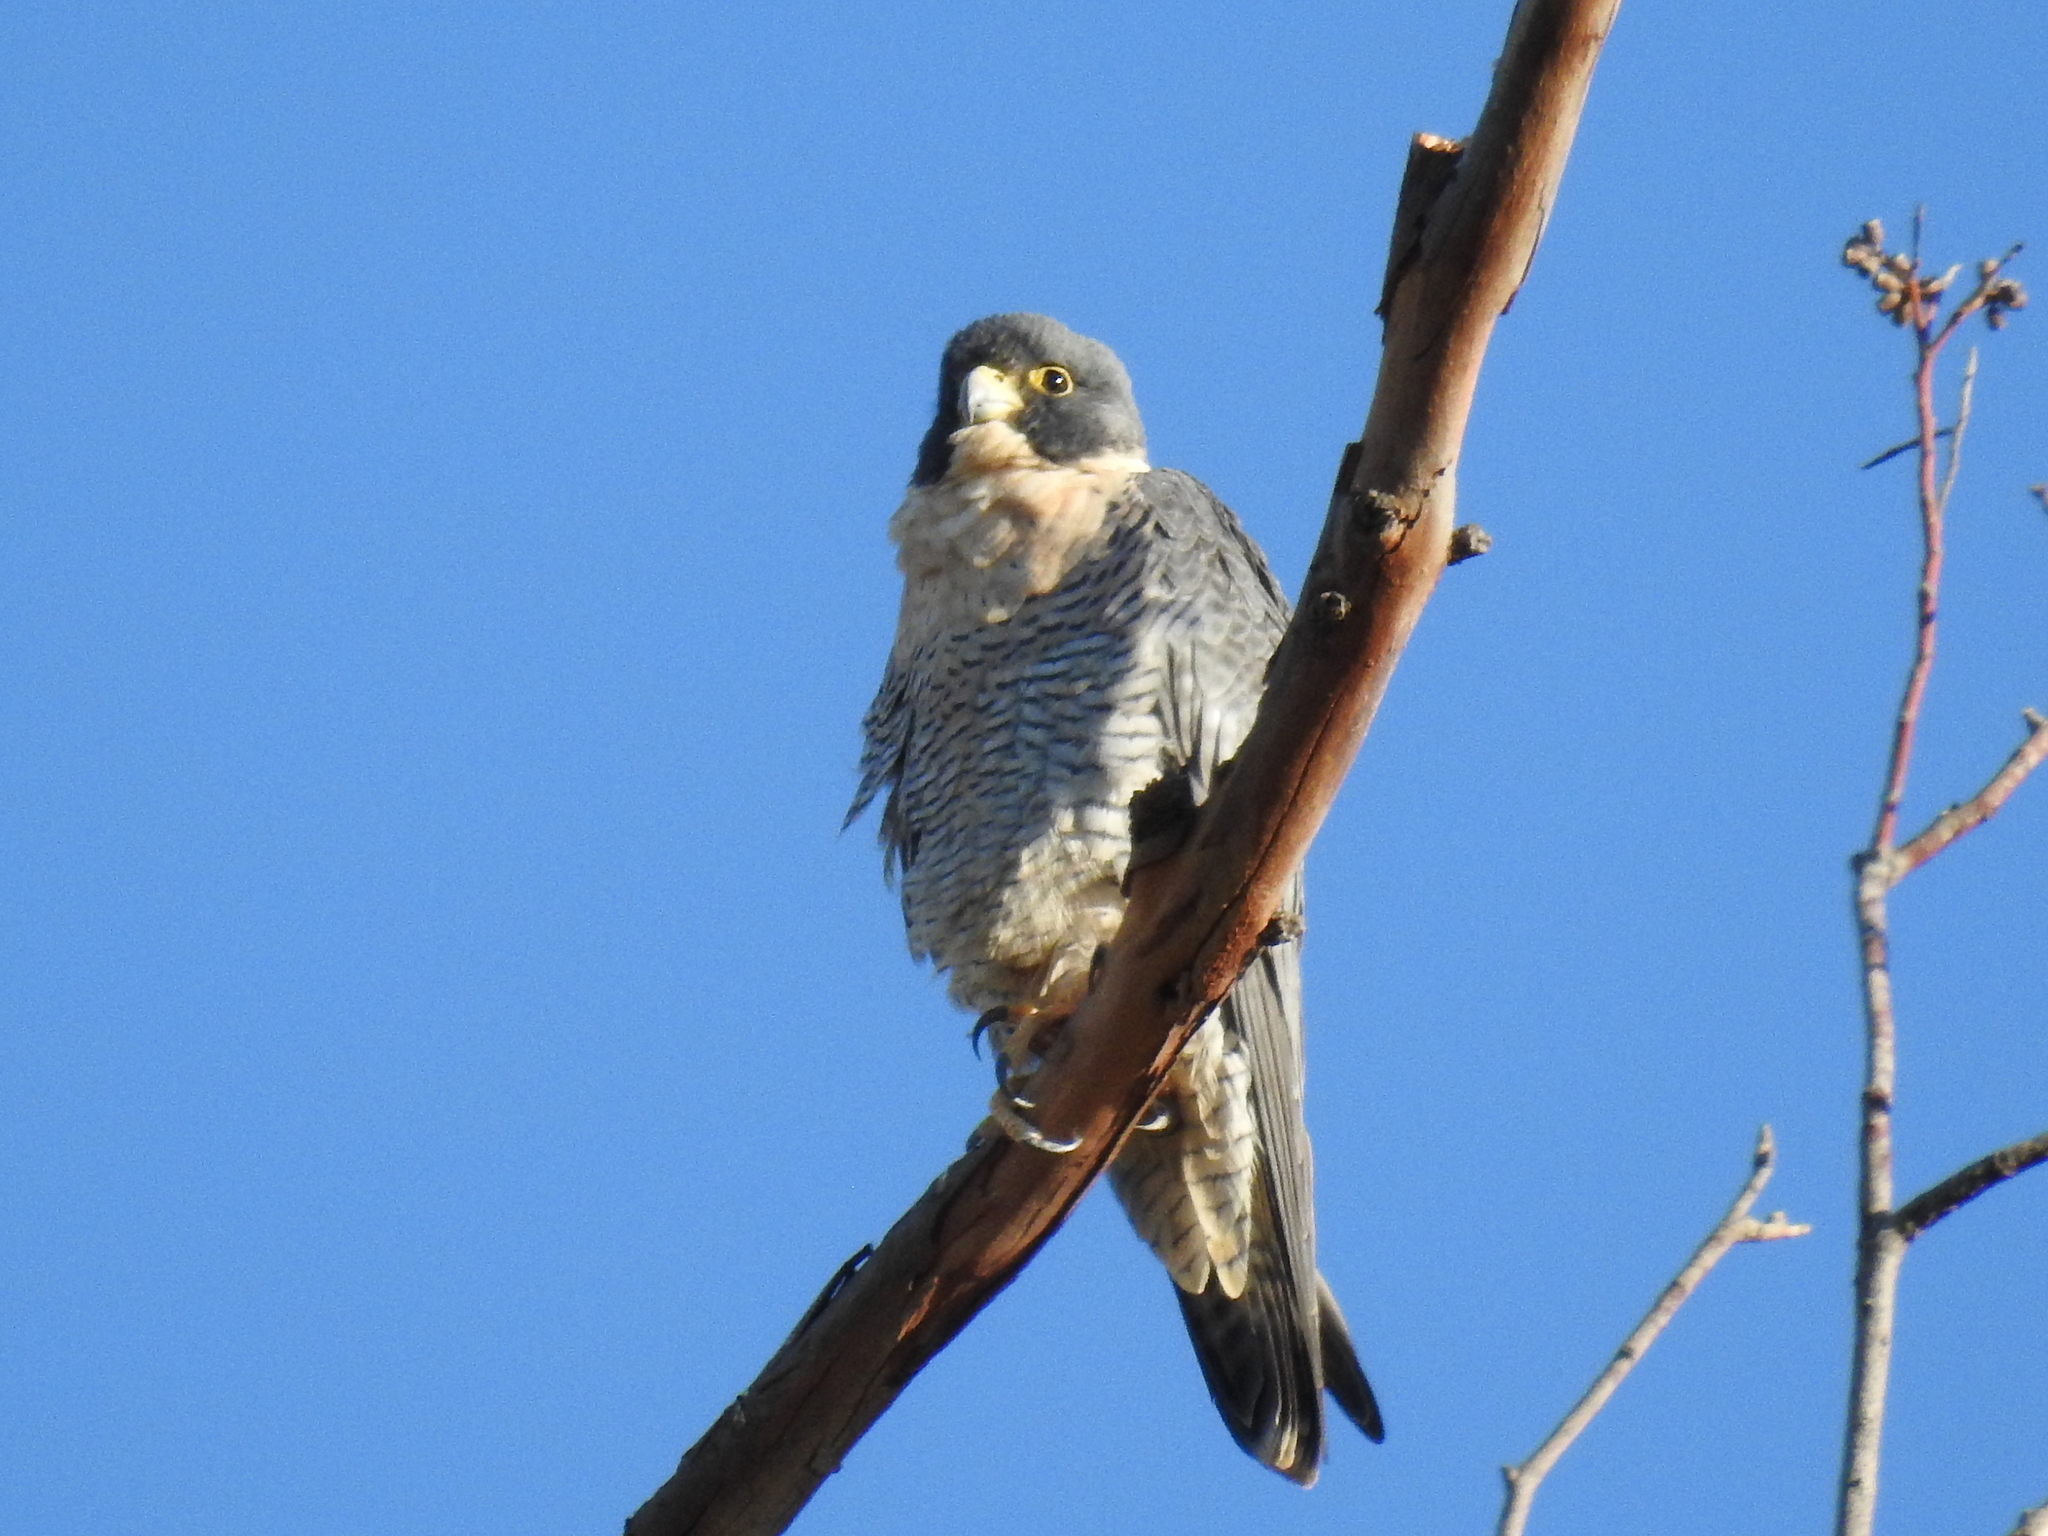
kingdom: Animalia
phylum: Chordata
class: Aves
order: Falconiformes
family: Falconidae
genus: Falco
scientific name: Falco peregrinus
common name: Peregrine falcon
